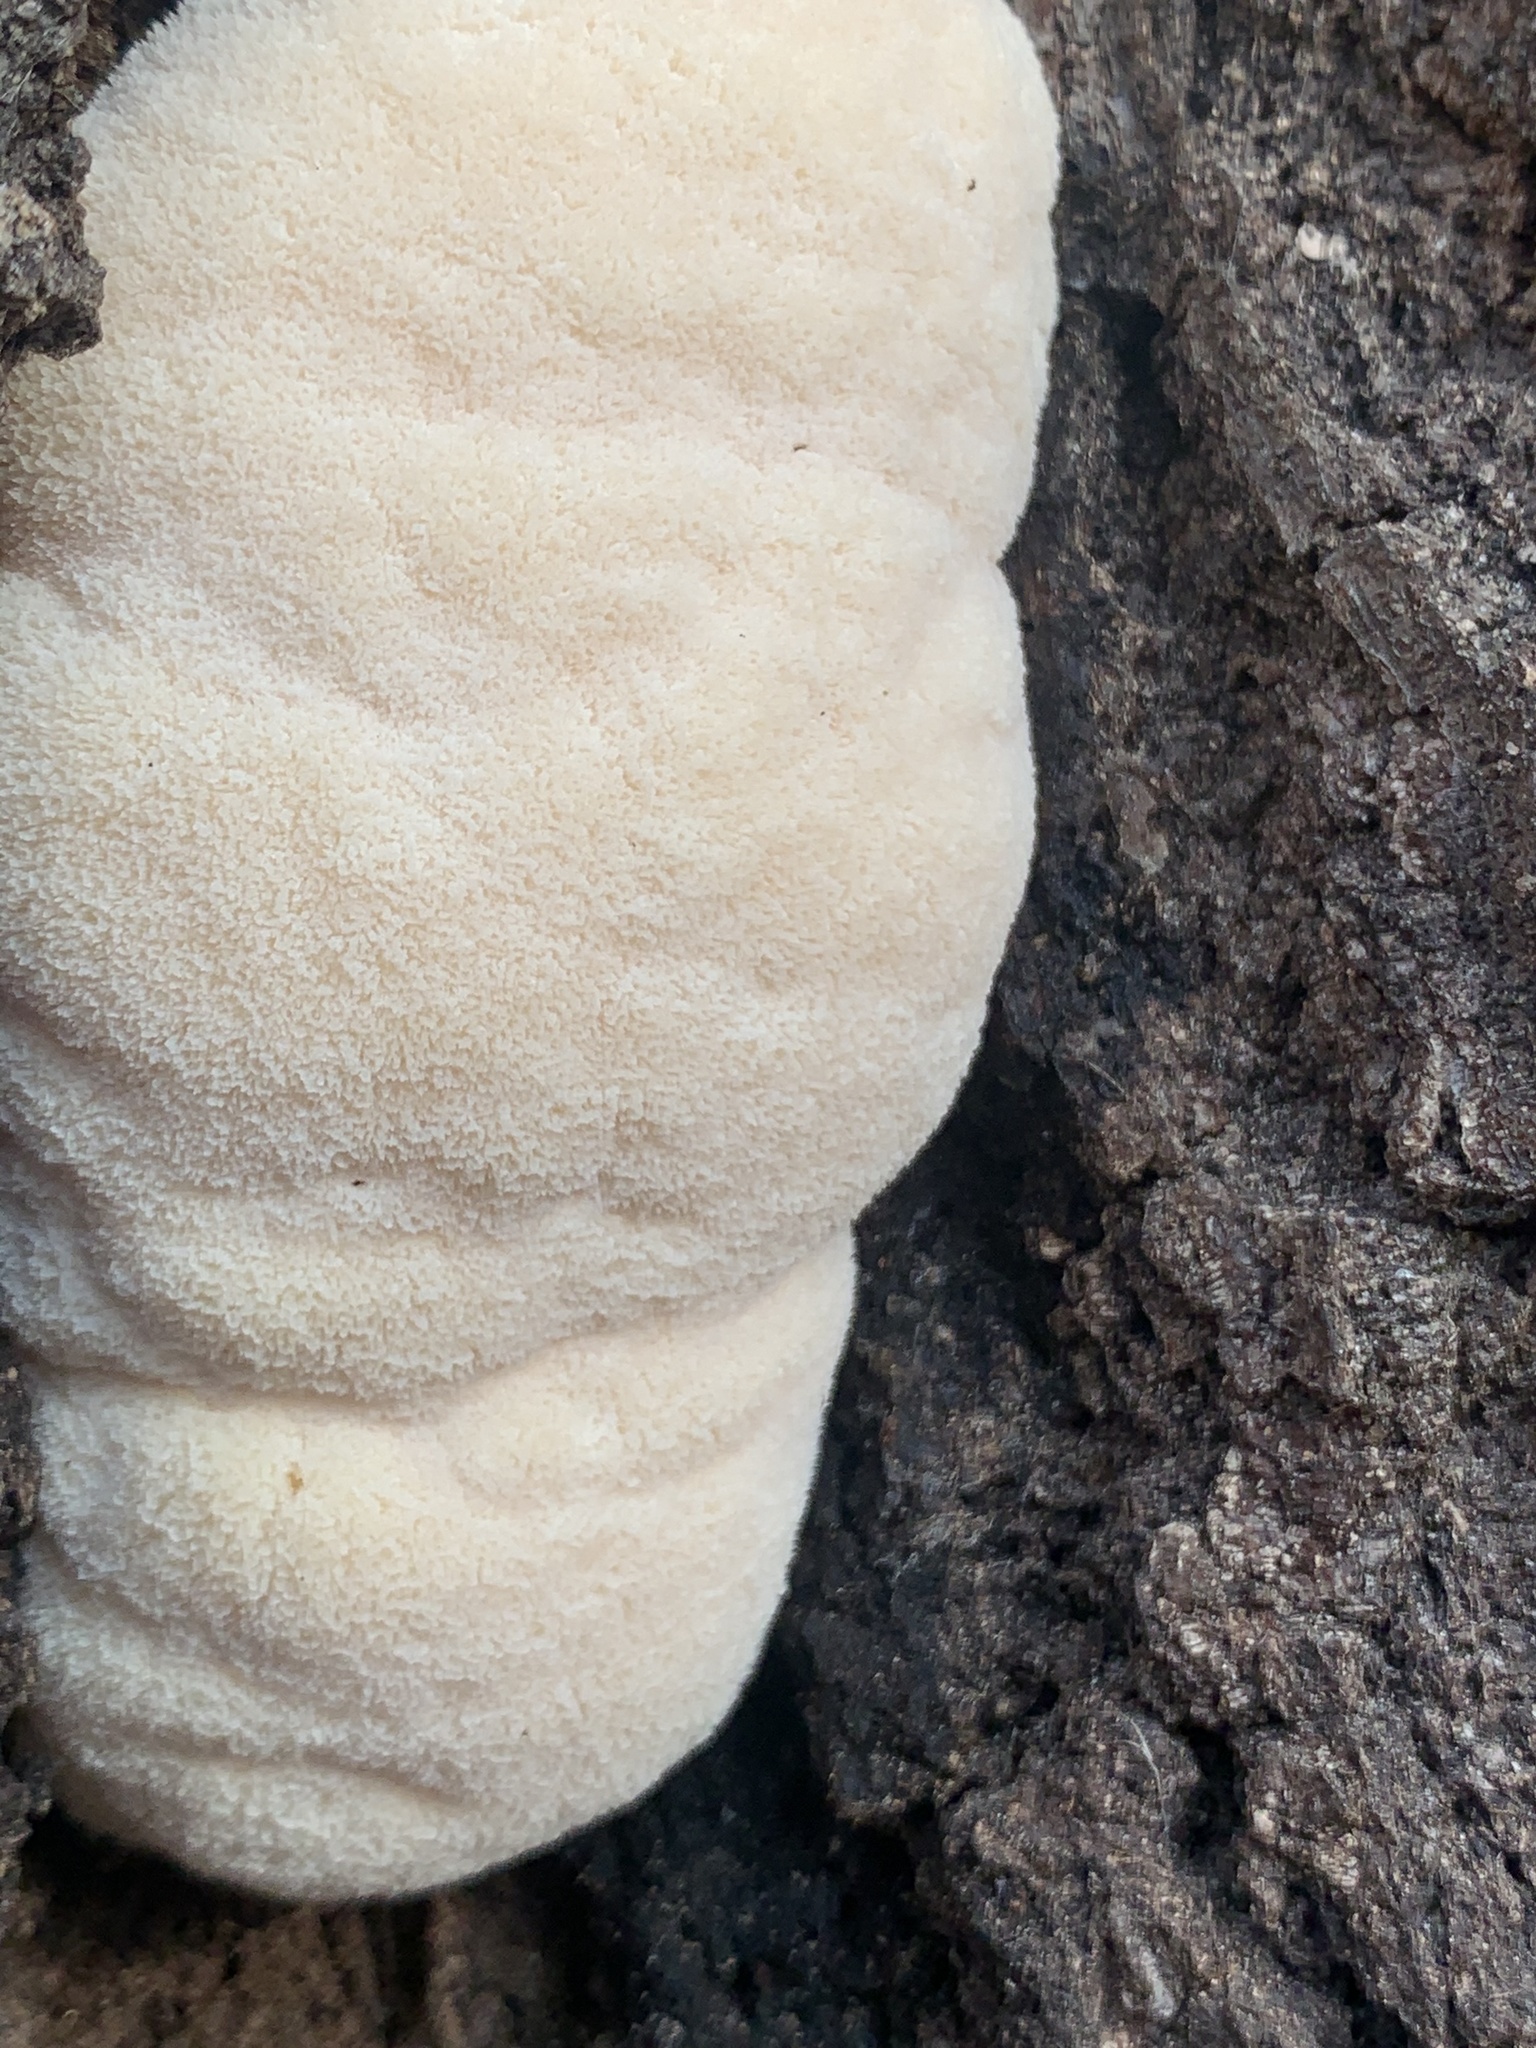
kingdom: Fungi
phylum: Basidiomycota
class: Agaricomycetes
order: Russulales
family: Hericiaceae
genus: Hericium
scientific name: Hericium erinaceus
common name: Bearded tooth
